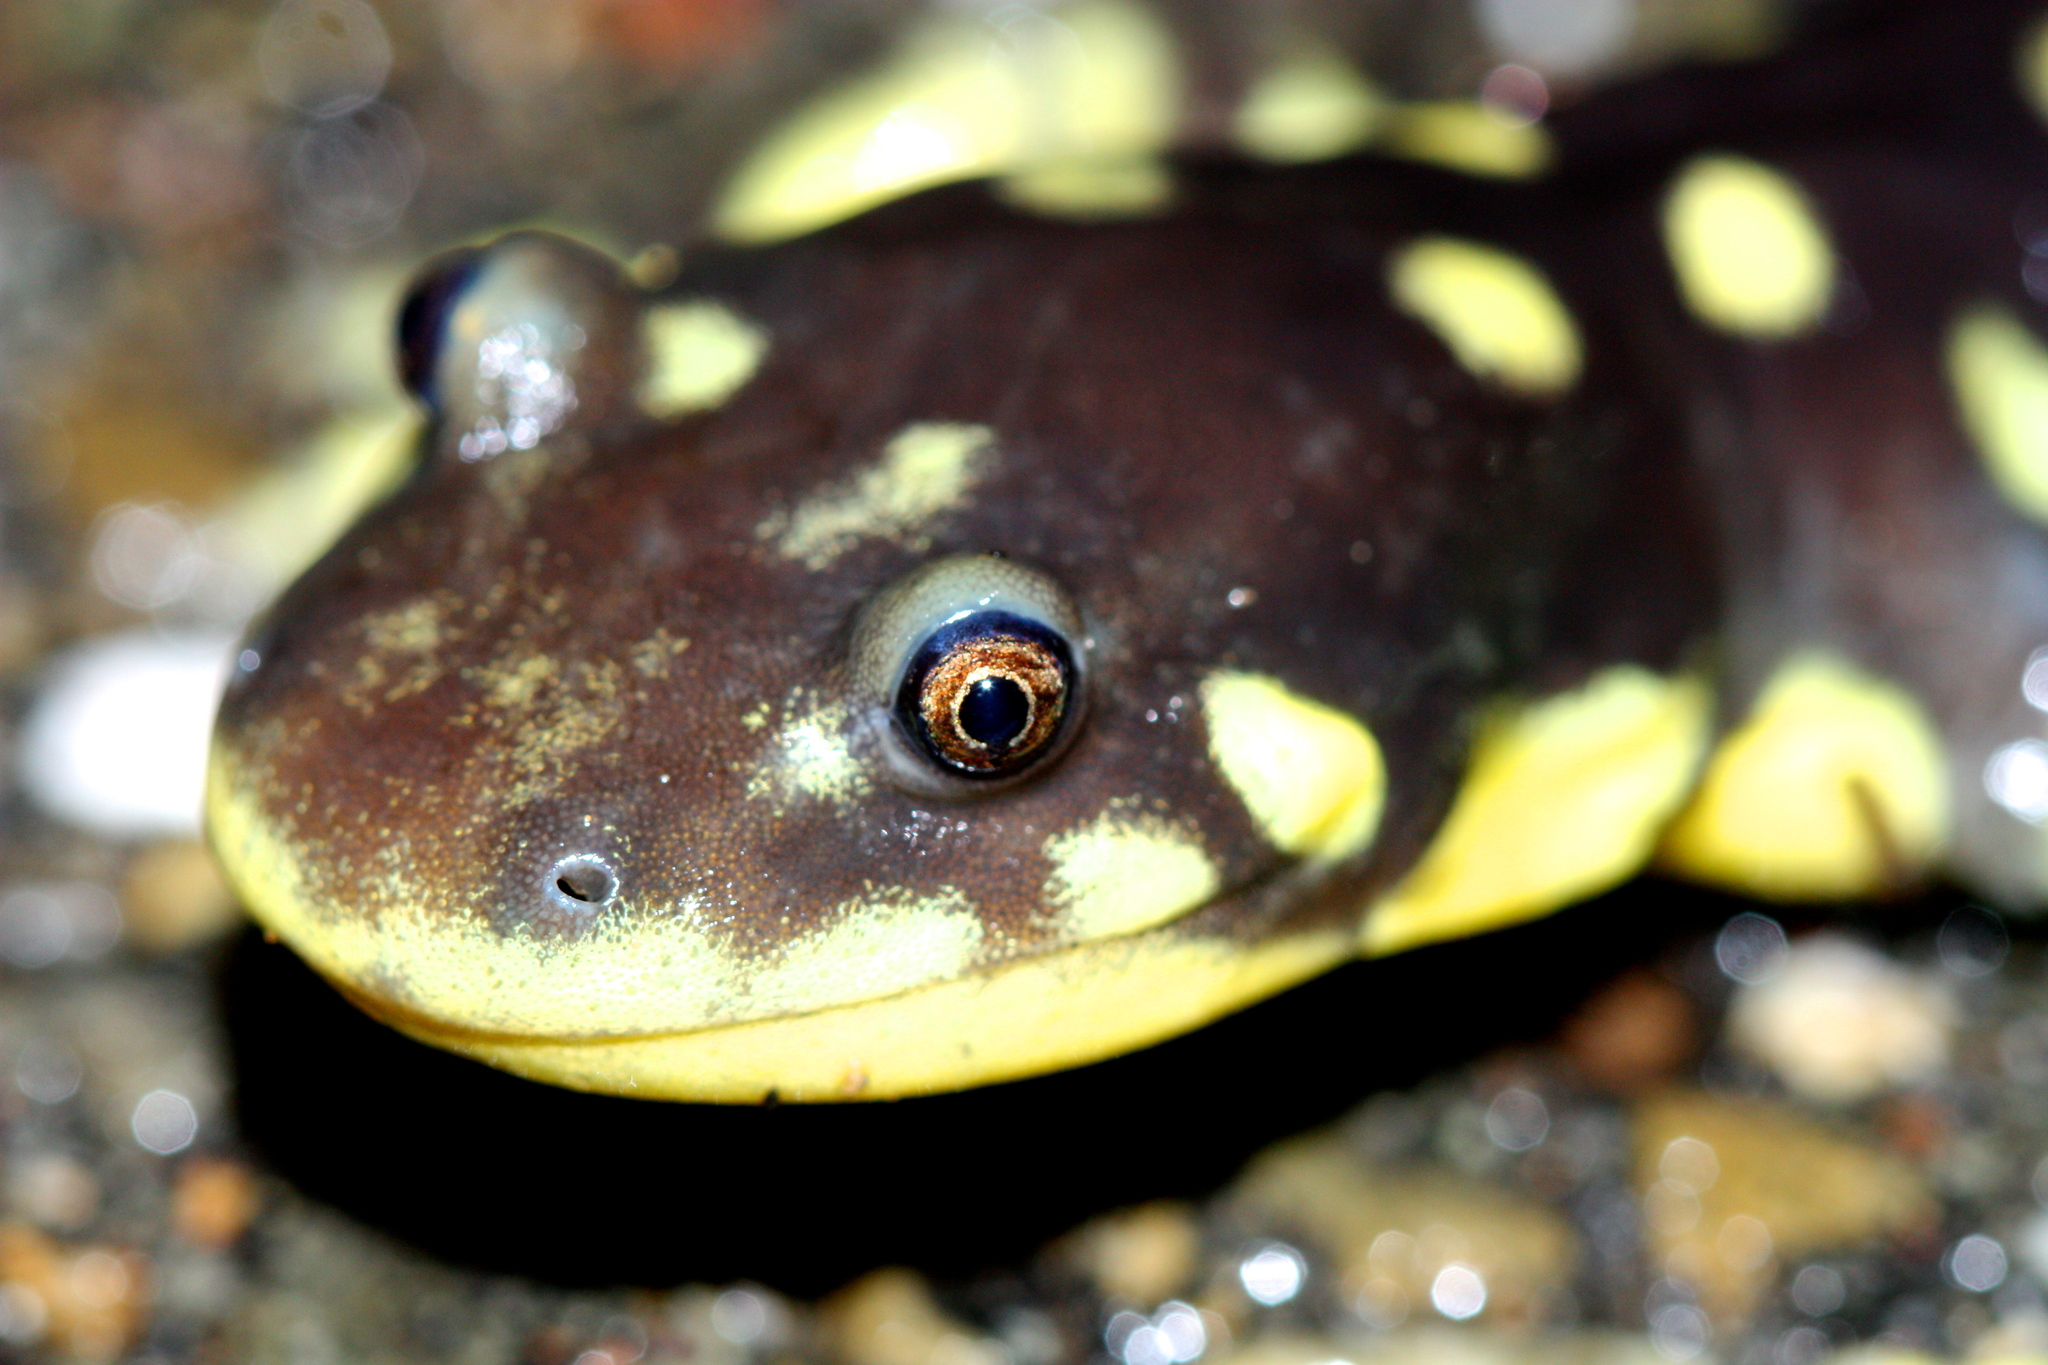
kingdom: Animalia
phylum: Chordata
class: Amphibia
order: Caudata
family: Ambystomatidae
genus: Ambystoma
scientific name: Ambystoma californiense
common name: California tiger salamander
